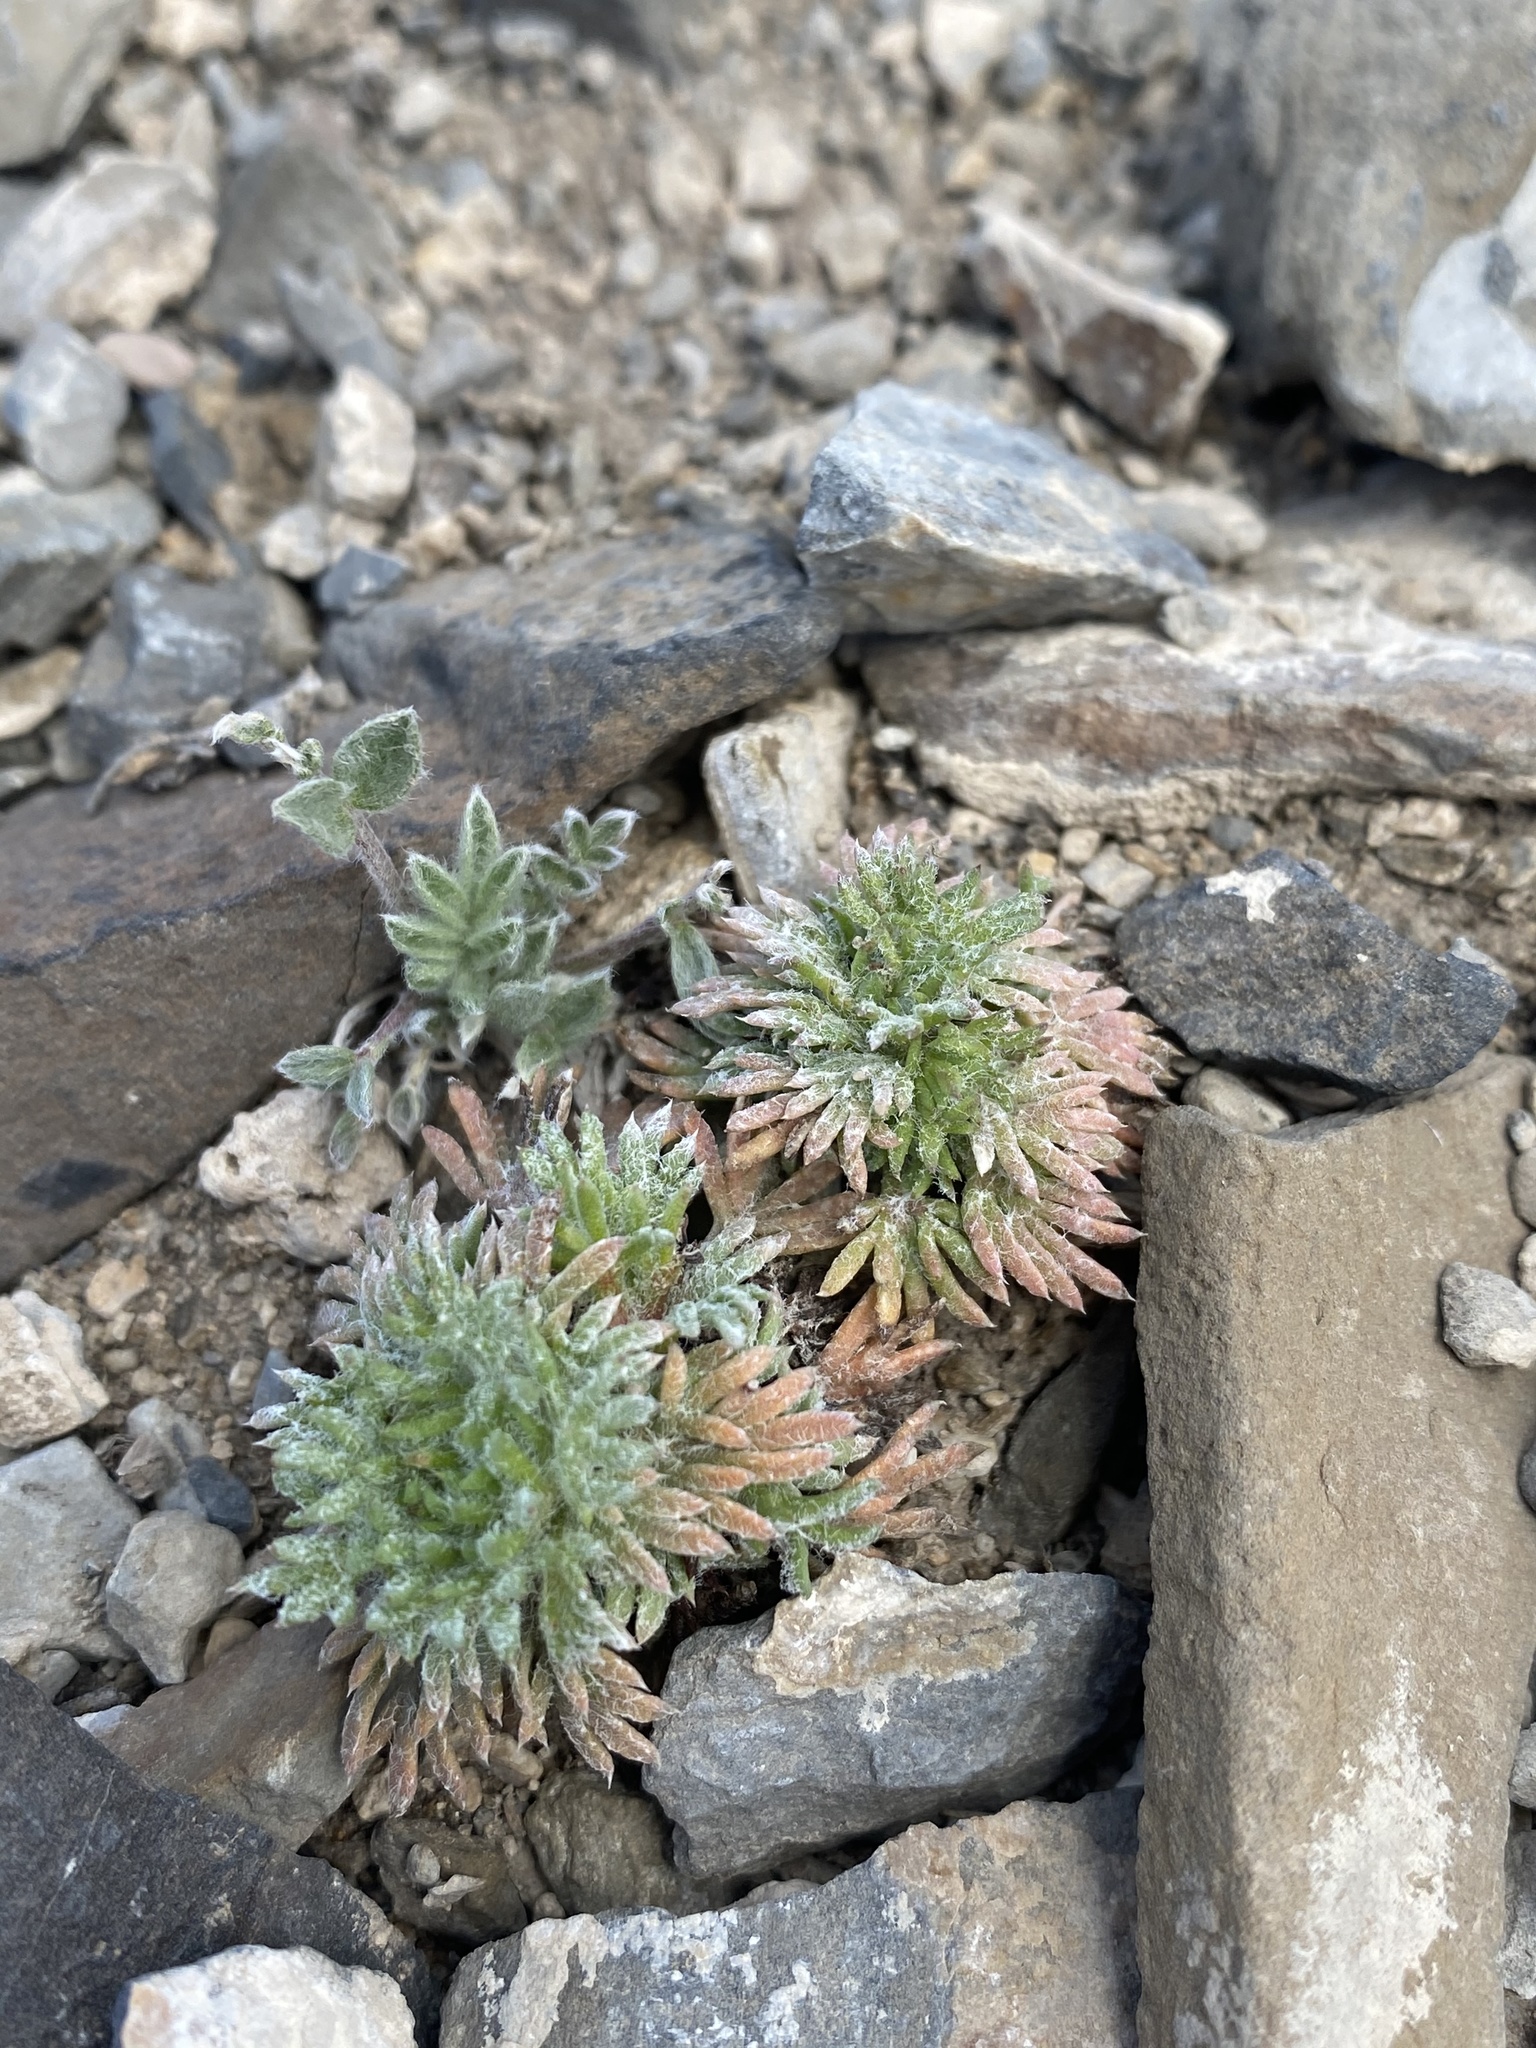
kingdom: Plantae
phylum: Tracheophyta
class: Magnoliopsida
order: Ericales
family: Polemoniaceae
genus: Ipomopsis
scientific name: Ipomopsis congesta
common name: Ball-head gilia
